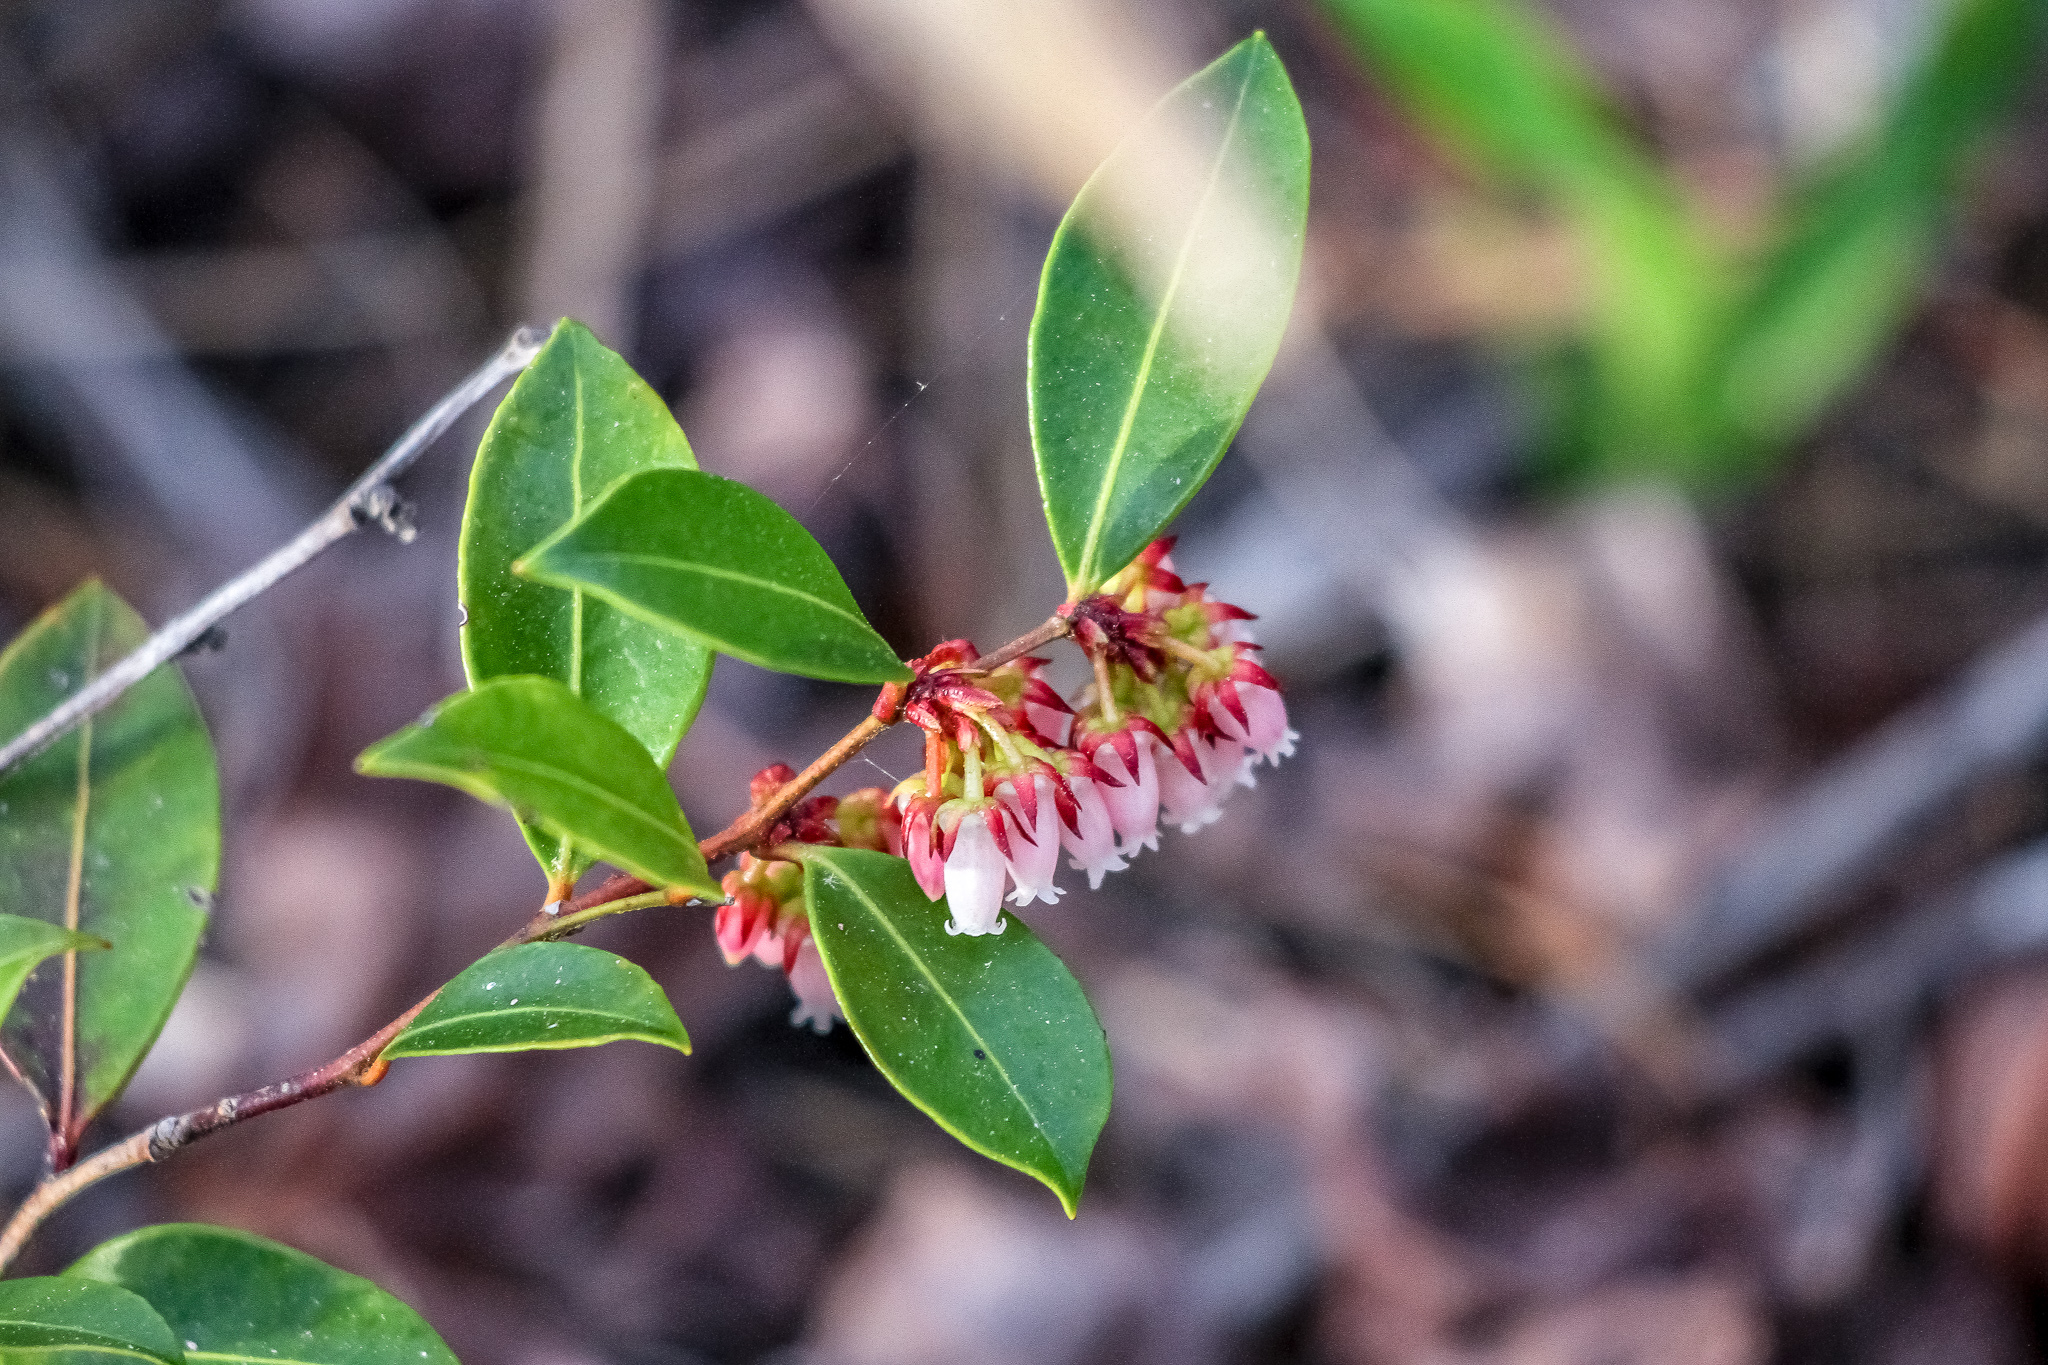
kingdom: Plantae
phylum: Tracheophyta
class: Magnoliopsida
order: Ericales
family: Ericaceae
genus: Lyonia
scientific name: Lyonia lucida
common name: Fetterbush
